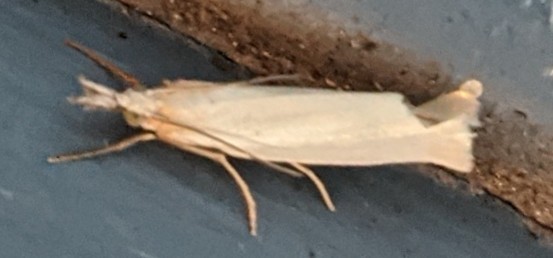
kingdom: Animalia
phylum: Arthropoda
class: Insecta
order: Lepidoptera
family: Crambidae
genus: Crambus
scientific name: Crambus perlellus
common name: Yellow satin veneer
